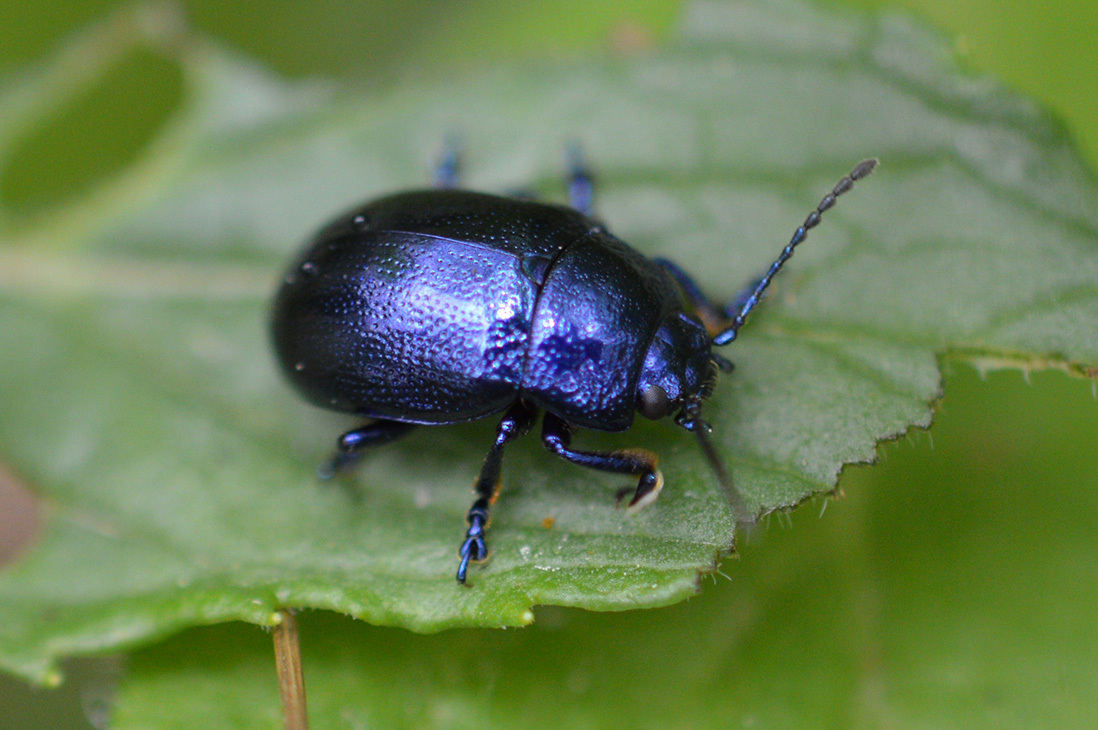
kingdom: Animalia
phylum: Arthropoda
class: Insecta
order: Coleoptera
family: Chrysomelidae
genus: Chrysolina
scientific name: Chrysolina coerulans
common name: Blue mint beetle
